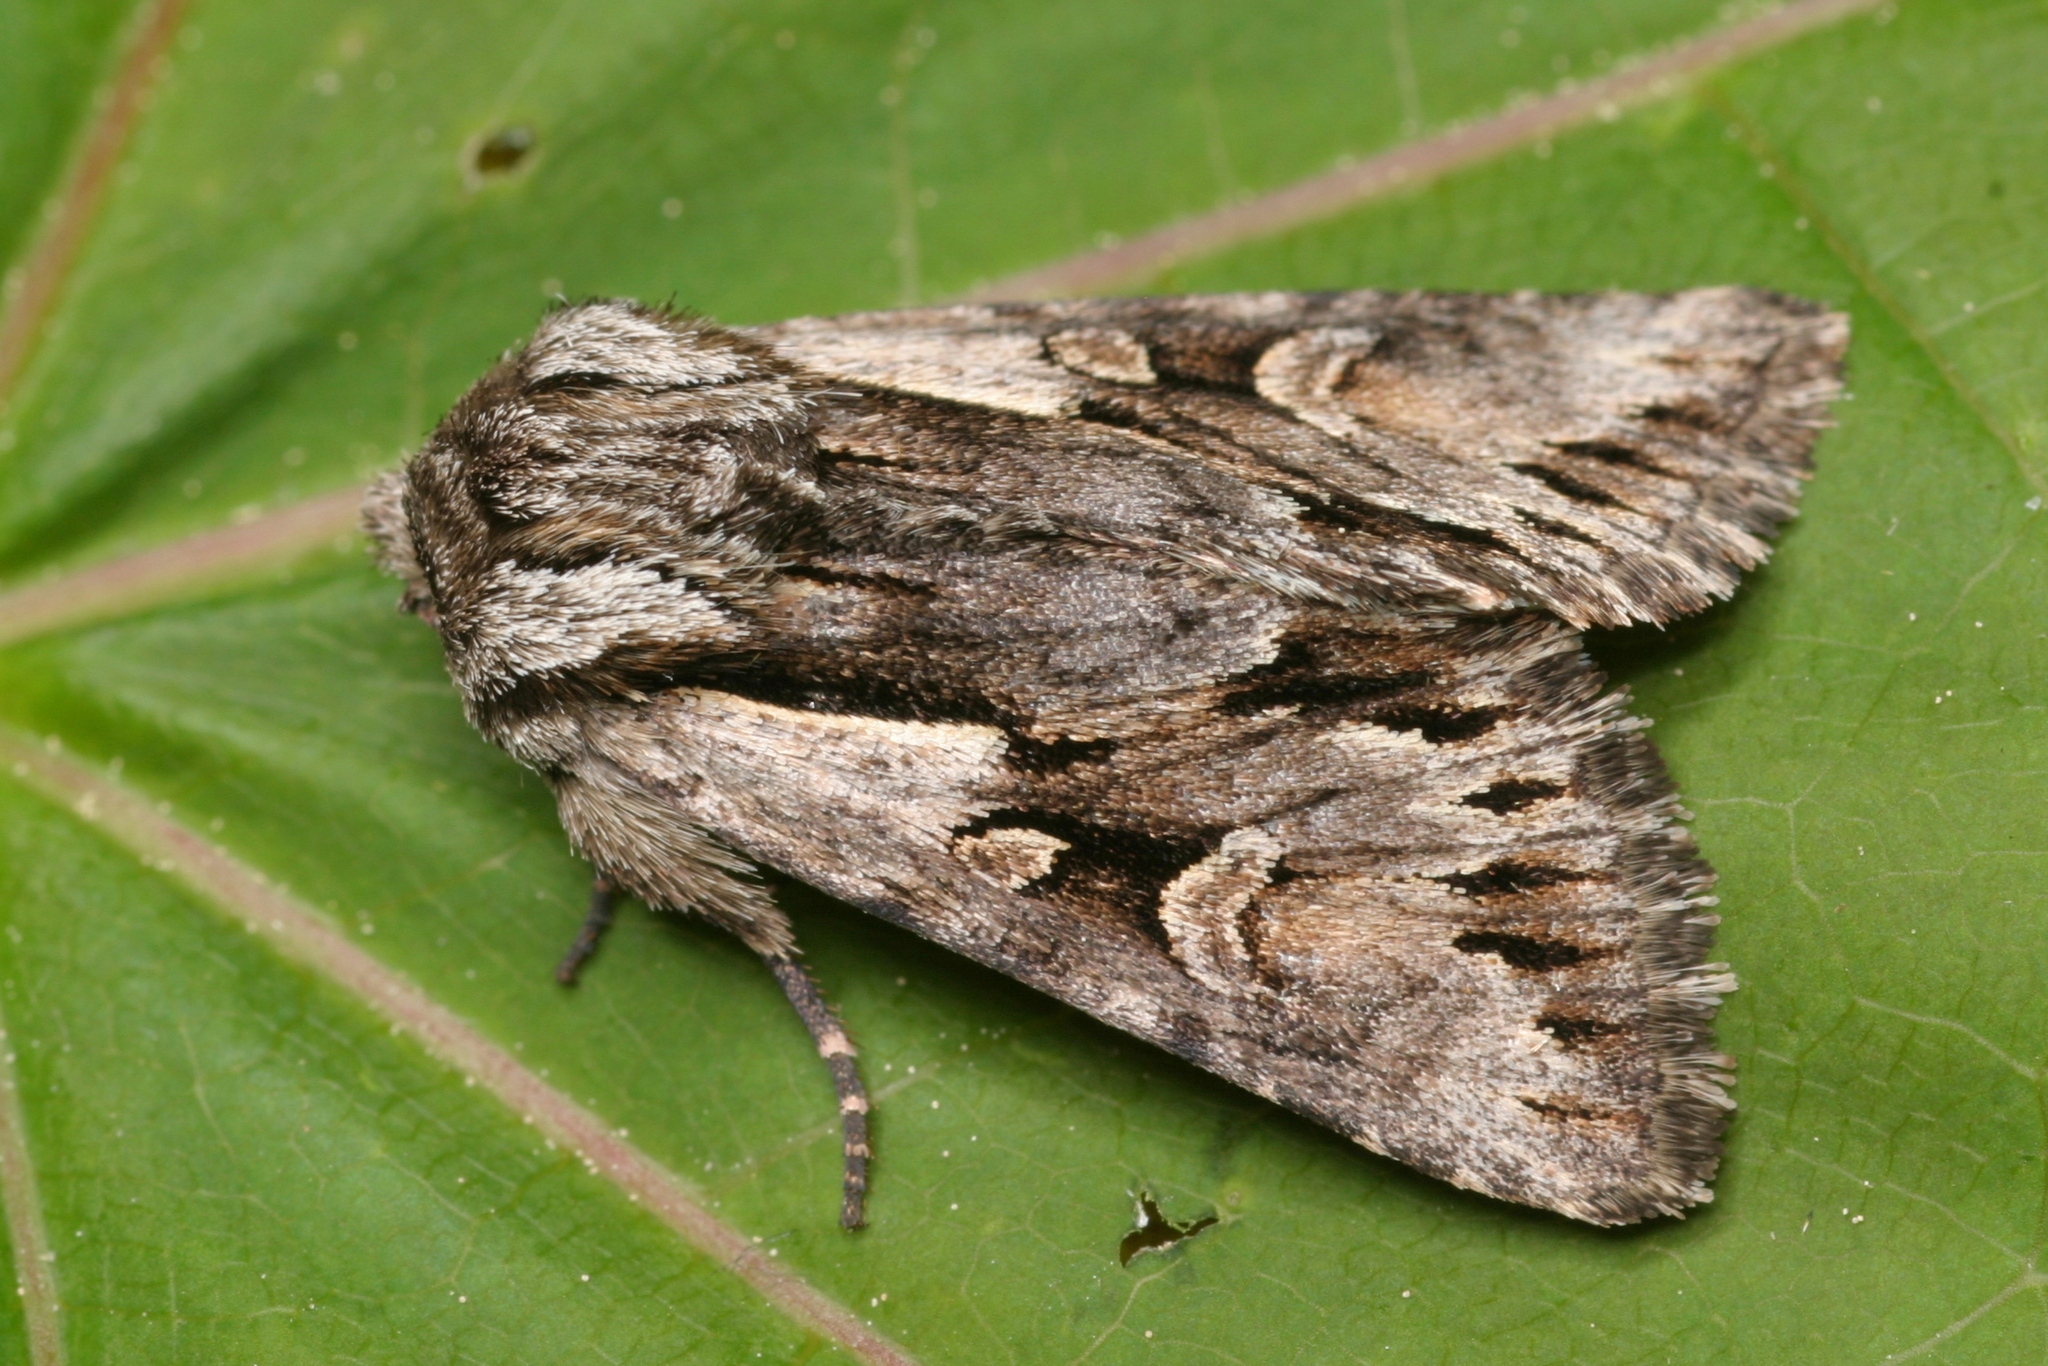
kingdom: Animalia
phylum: Arthropoda
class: Insecta
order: Lepidoptera
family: Noctuidae
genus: Chloantha
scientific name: Chloantha hyperici
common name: Pale-shouldered cloud
